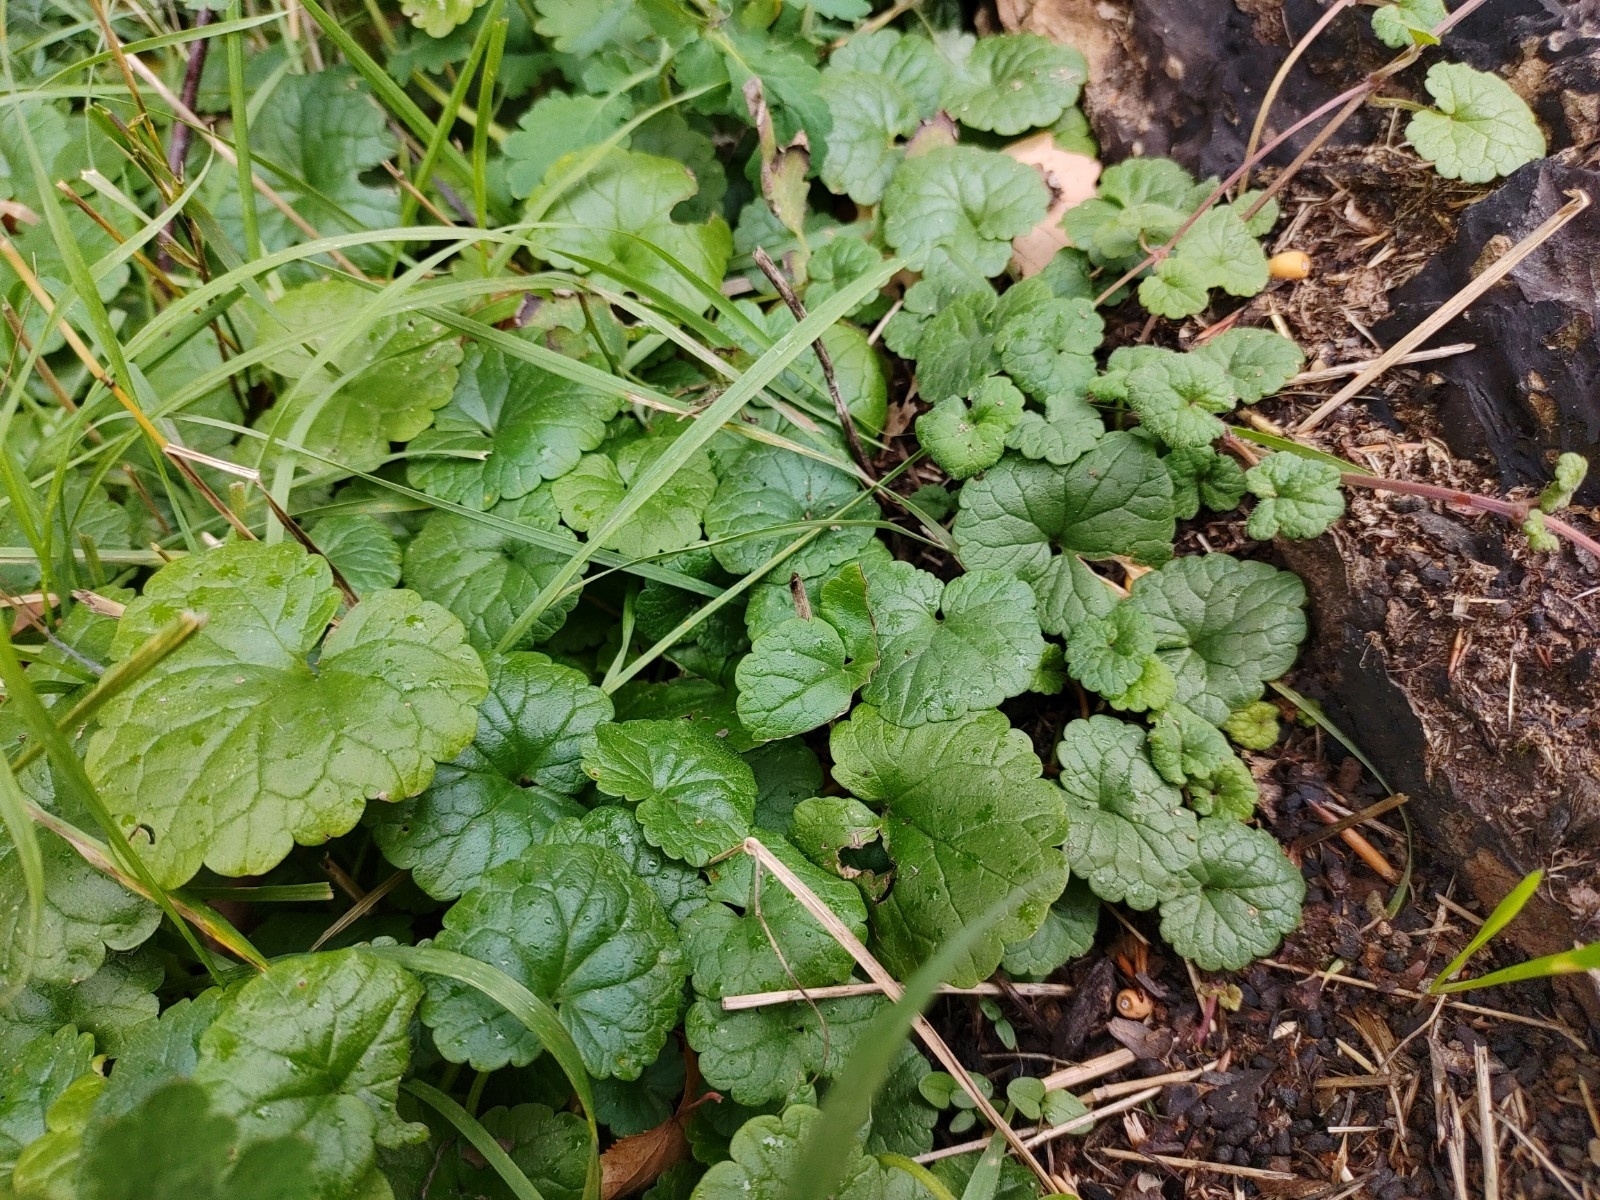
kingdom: Plantae
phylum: Tracheophyta
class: Magnoliopsida
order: Lamiales
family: Lamiaceae
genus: Glechoma
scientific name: Glechoma hederacea
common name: Ground ivy
